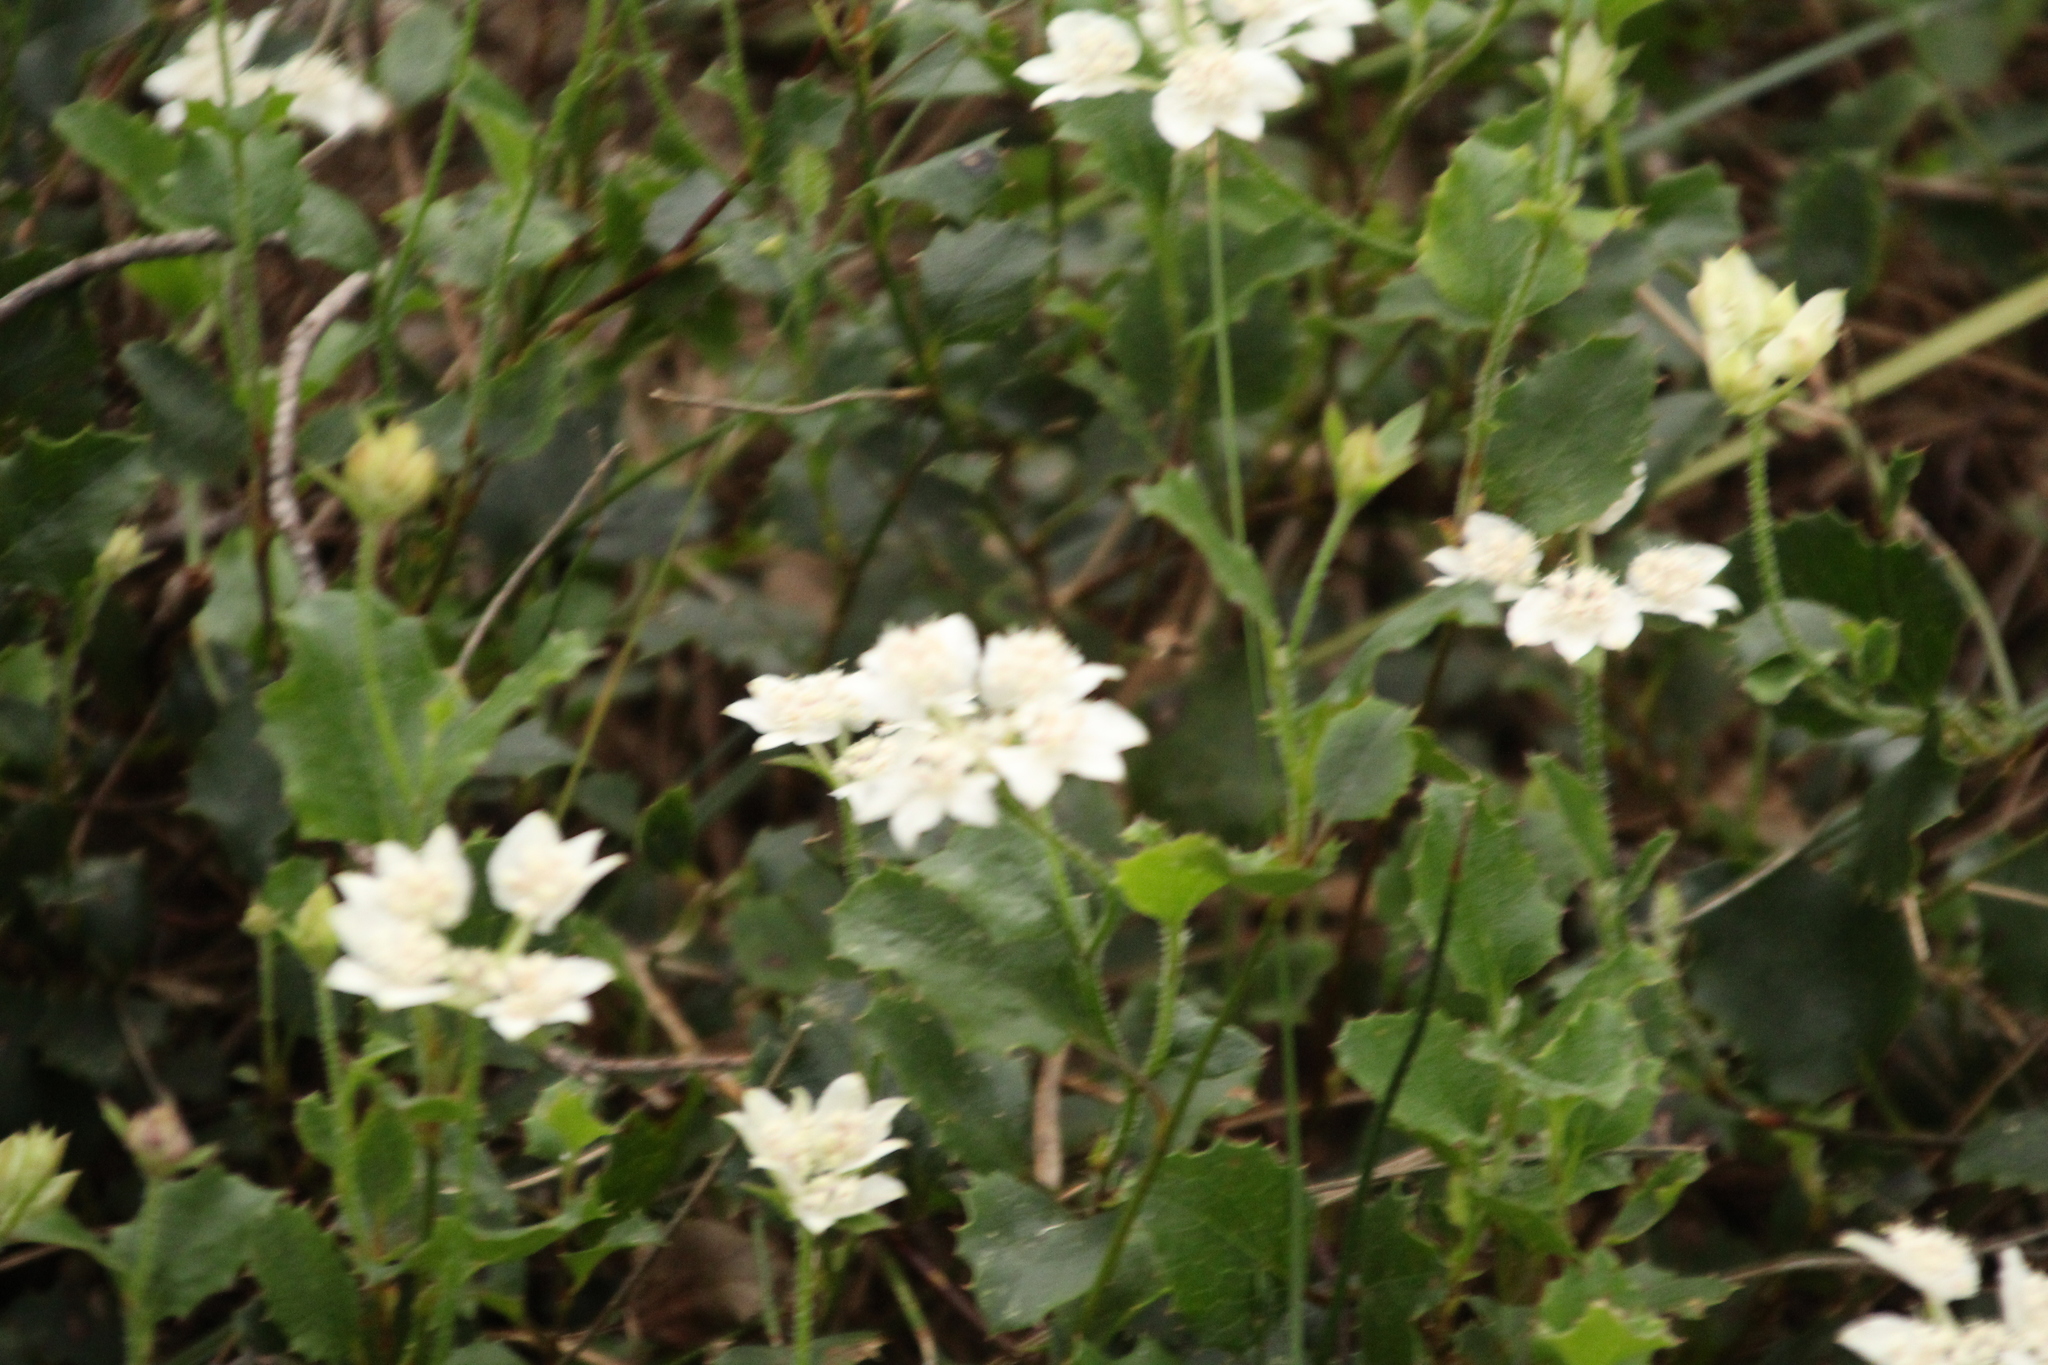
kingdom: Plantae
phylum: Tracheophyta
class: Magnoliopsida
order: Apiales
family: Apiaceae
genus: Xanthosia
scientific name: Xanthosia rotundifolia
